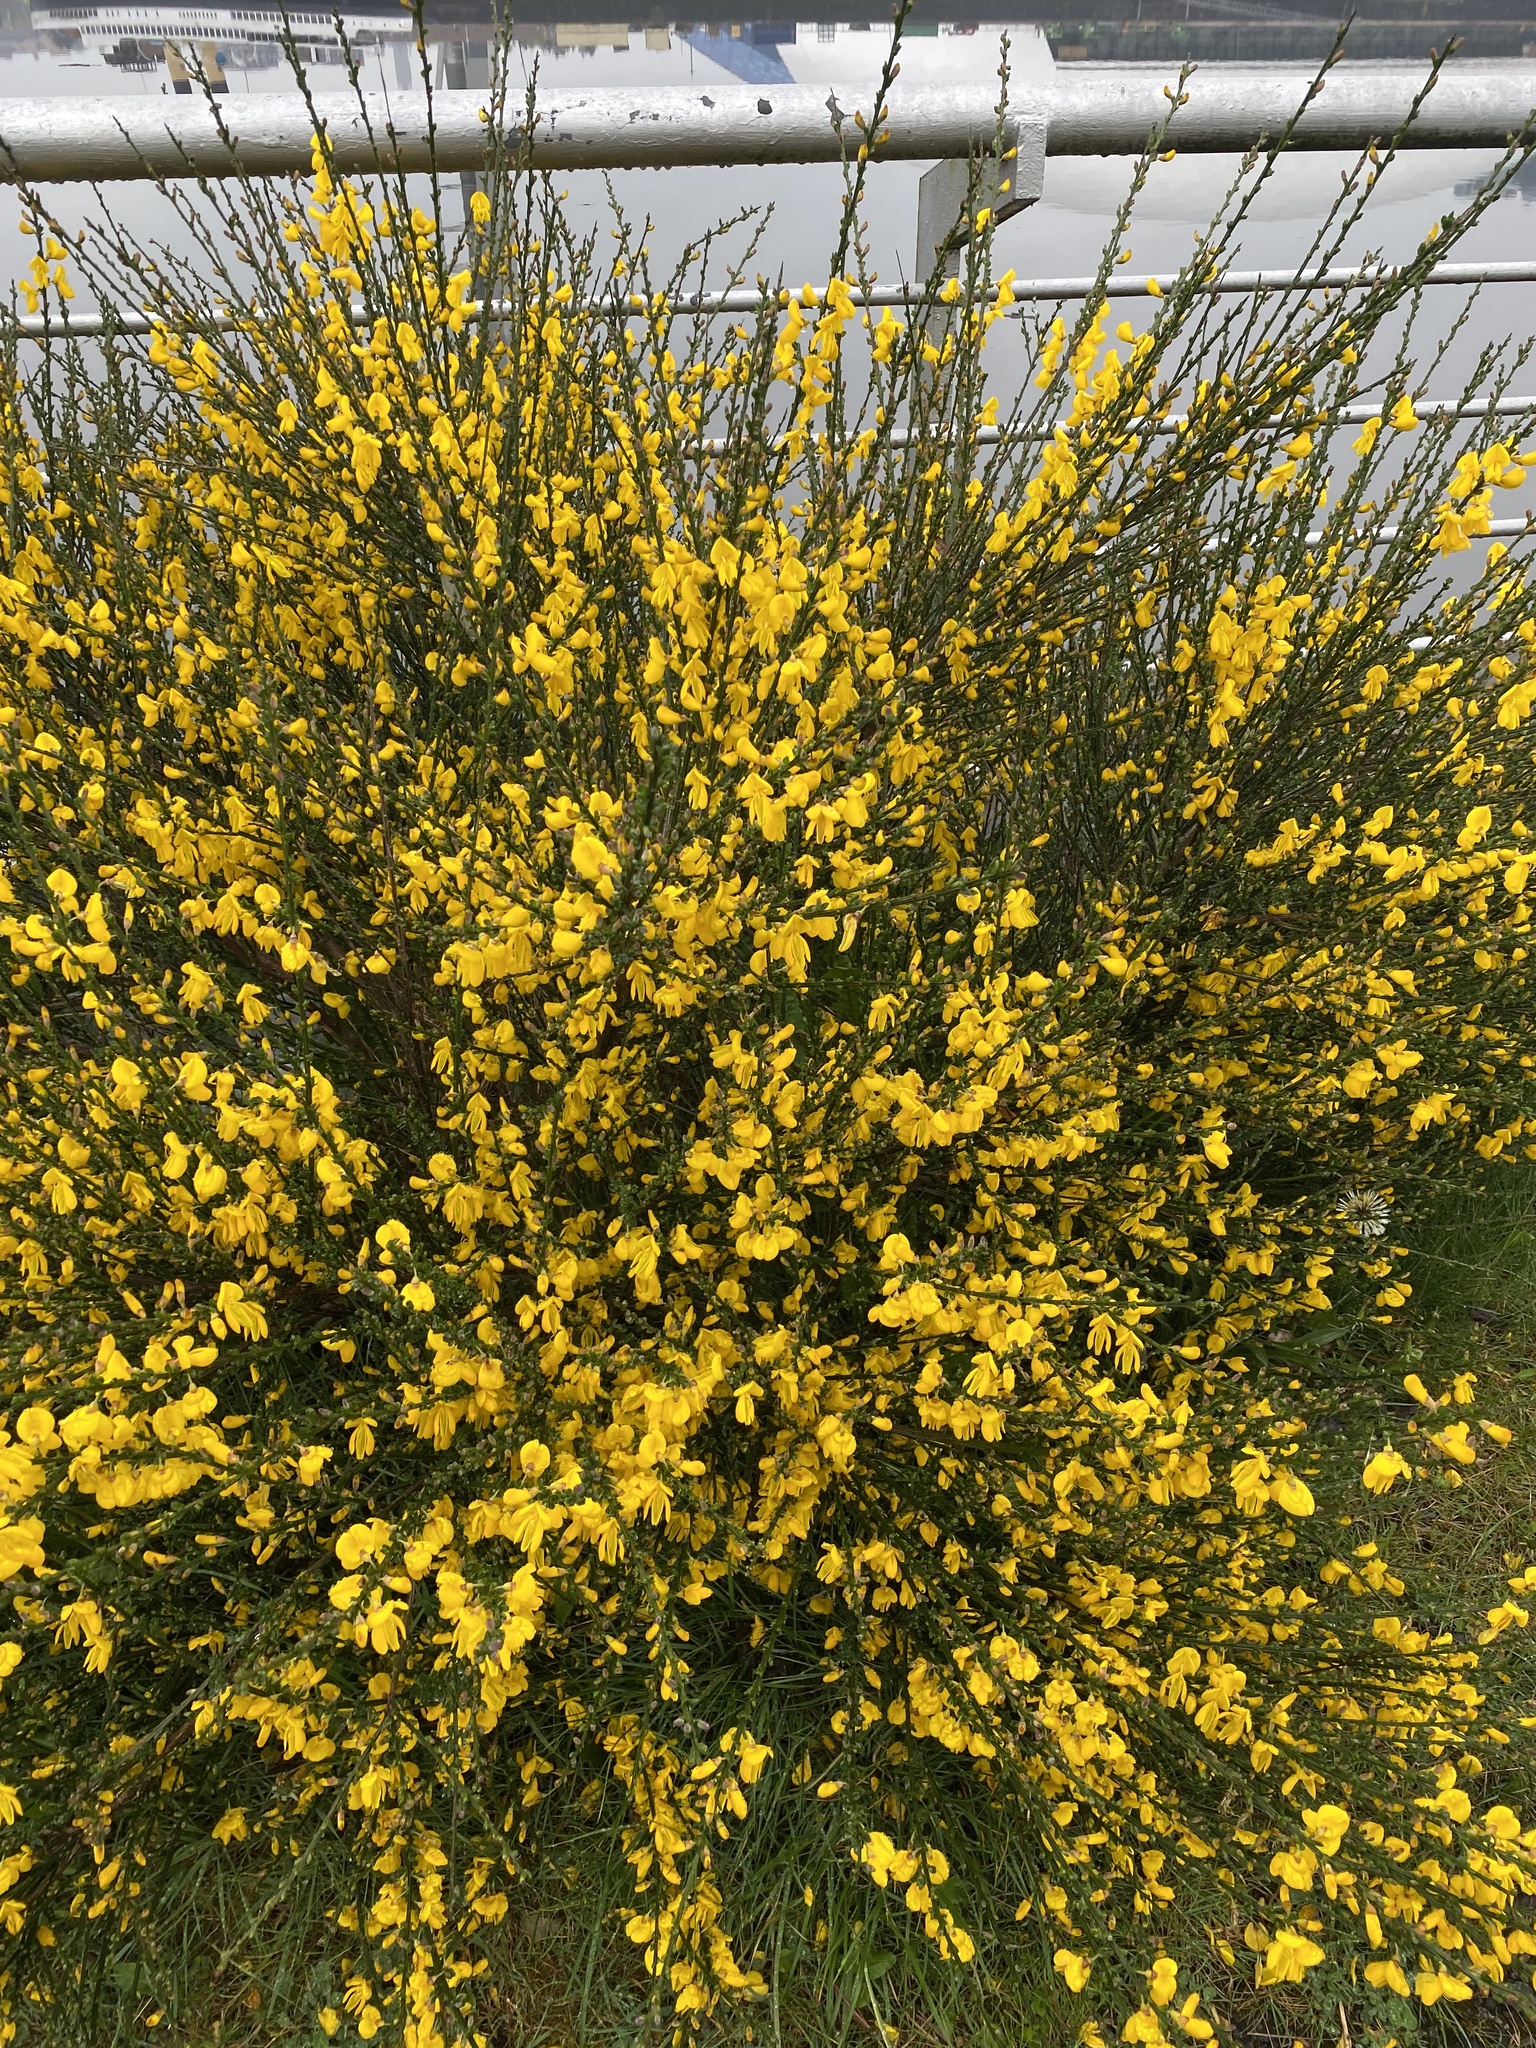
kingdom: Plantae
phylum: Tracheophyta
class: Magnoliopsida
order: Fabales
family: Fabaceae
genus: Cytisus
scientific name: Cytisus scoparius
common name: Scotch broom
